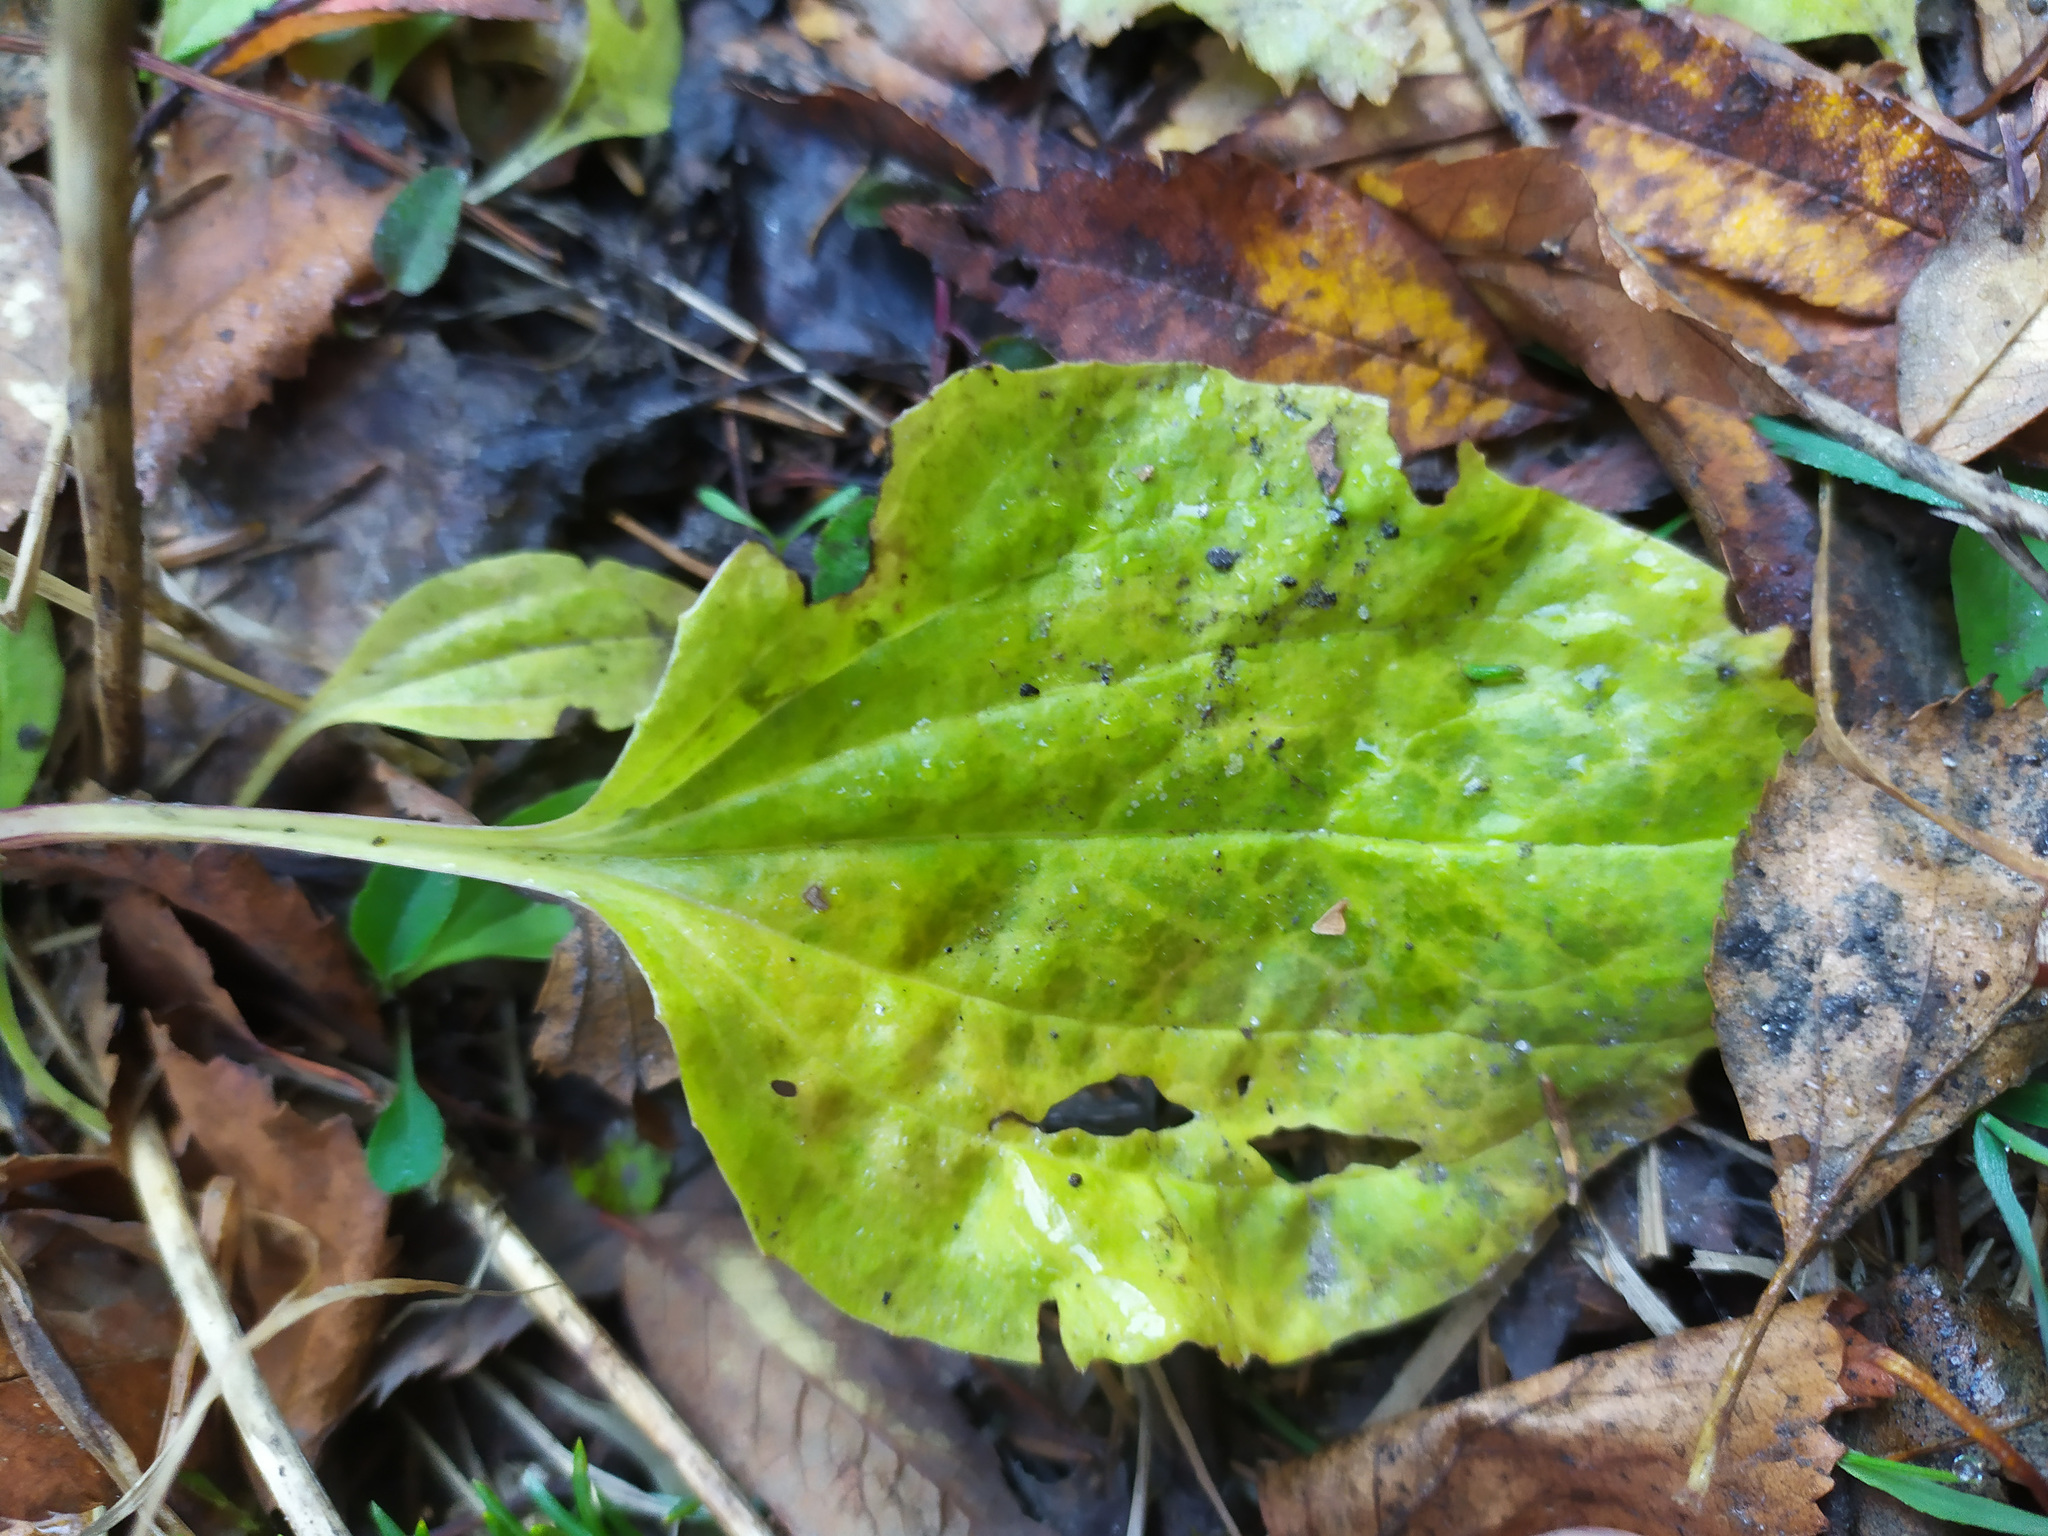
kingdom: Plantae
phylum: Tracheophyta
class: Magnoliopsida
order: Lamiales
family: Plantaginaceae
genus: Plantago
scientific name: Plantago major
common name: Common plantain
